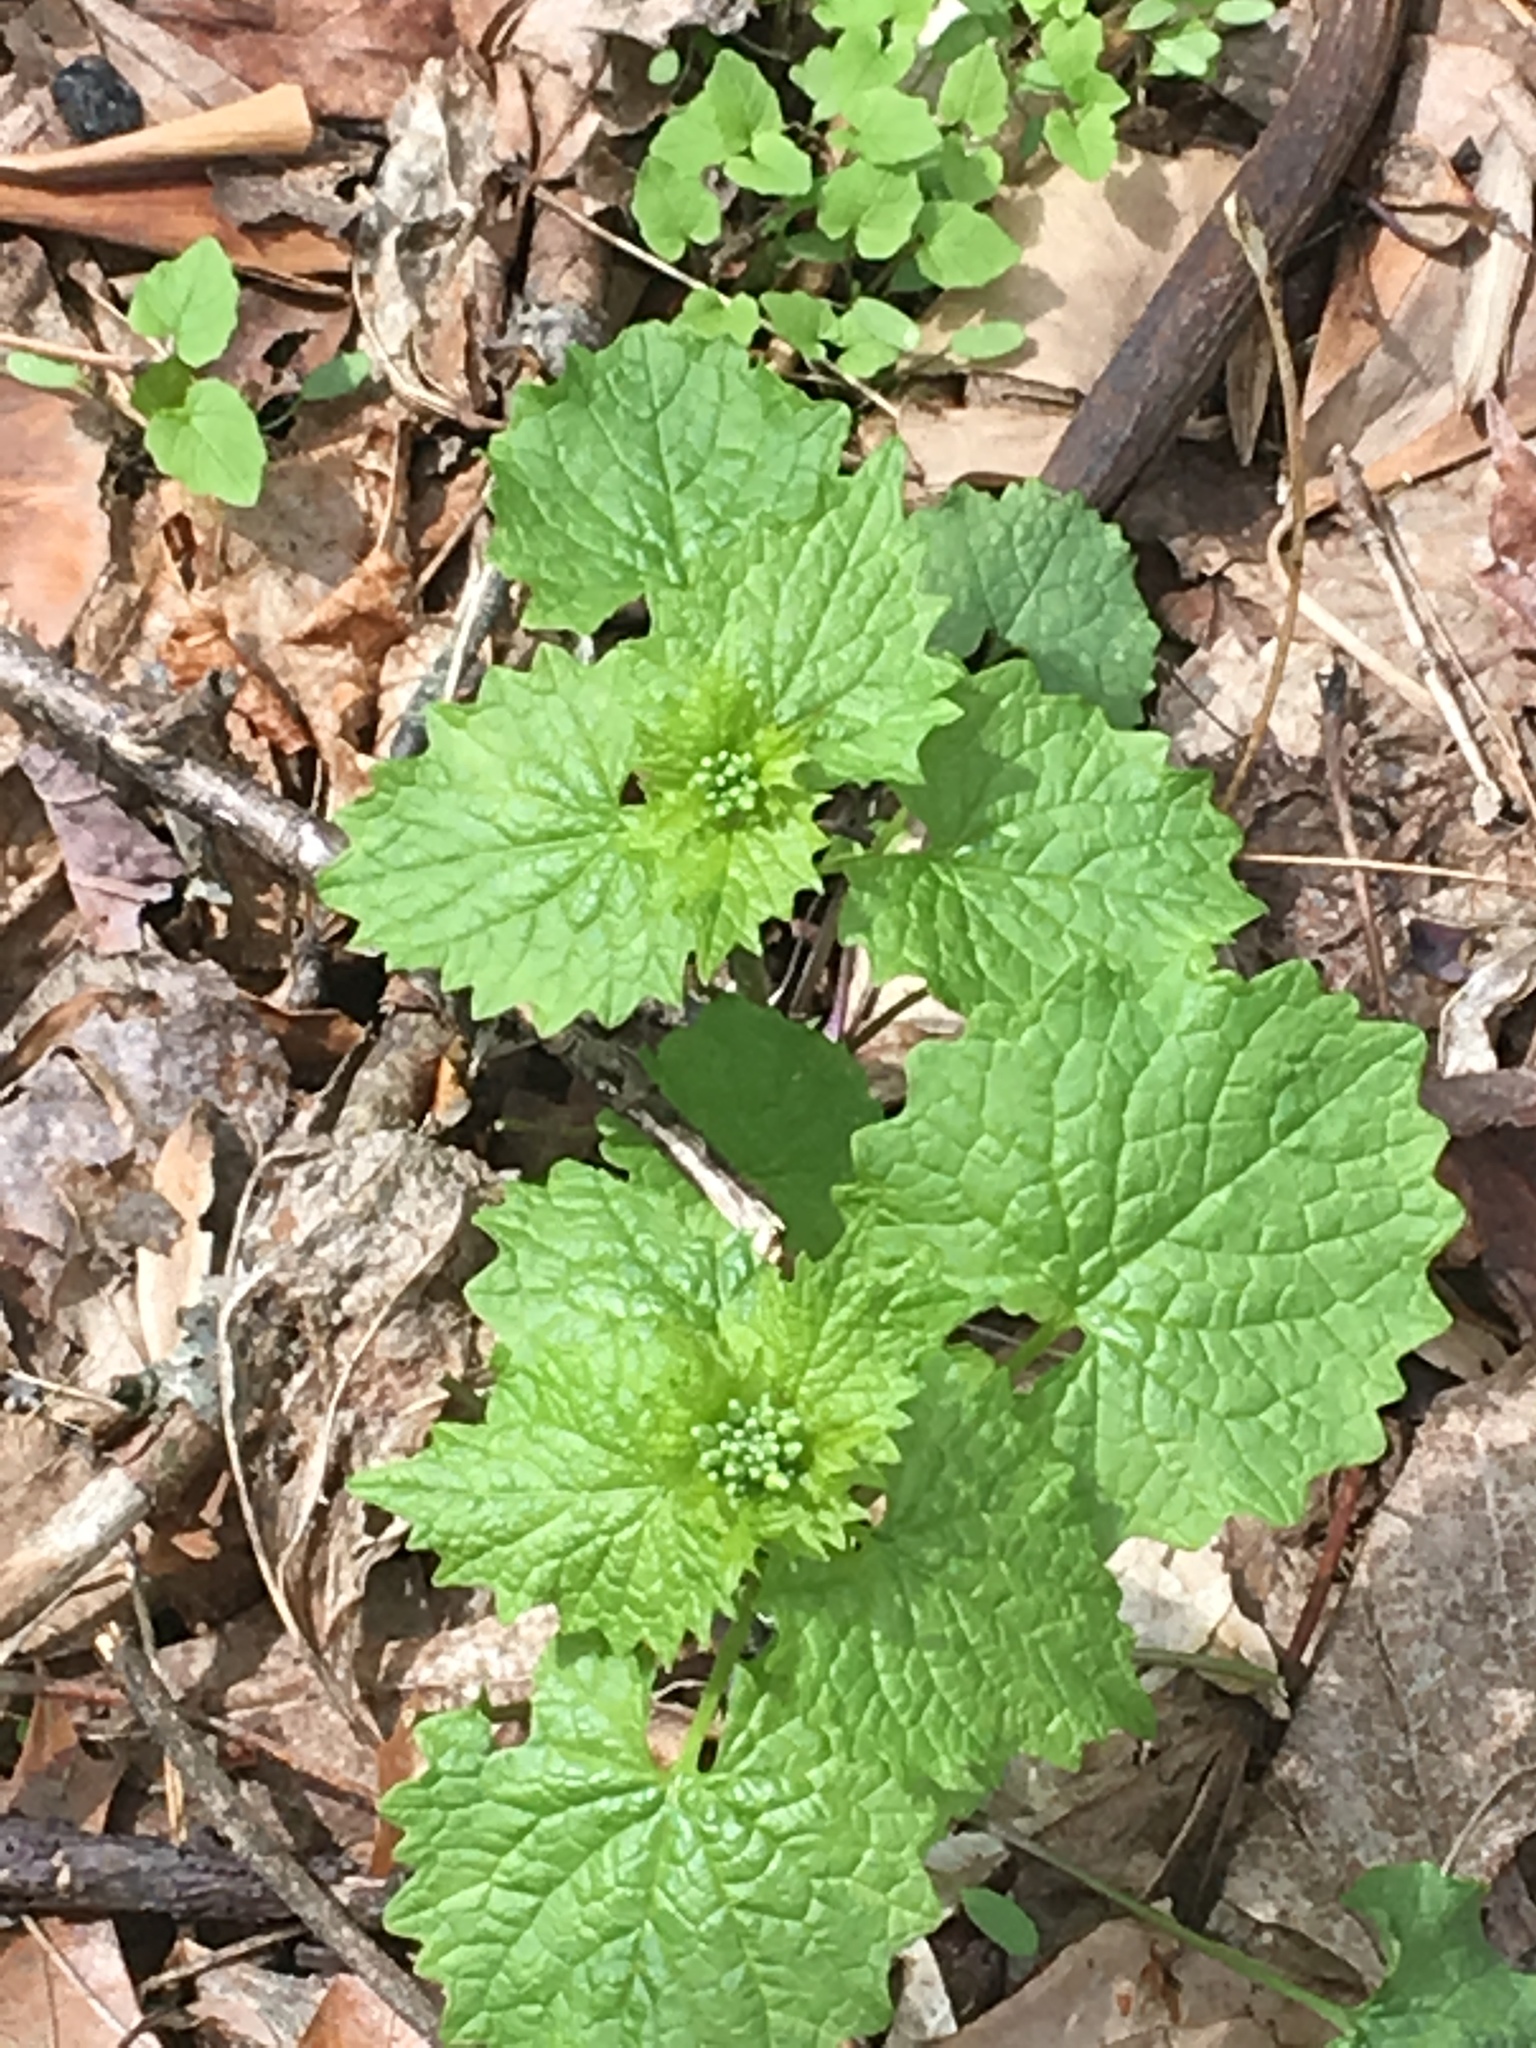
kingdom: Plantae
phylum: Tracheophyta
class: Magnoliopsida
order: Brassicales
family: Brassicaceae
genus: Alliaria
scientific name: Alliaria petiolata
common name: Garlic mustard
